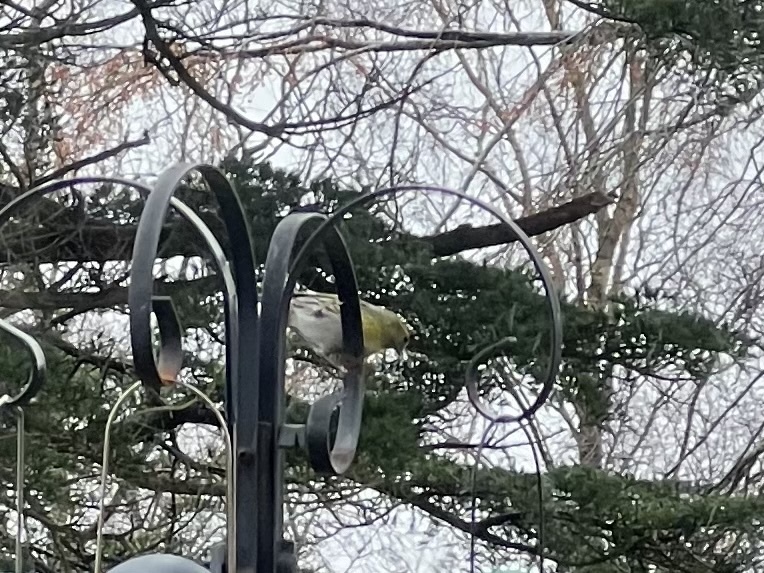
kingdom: Animalia
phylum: Chordata
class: Aves
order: Passeriformes
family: Fringillidae
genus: Spinus
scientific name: Spinus spinus
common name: Eurasian siskin
